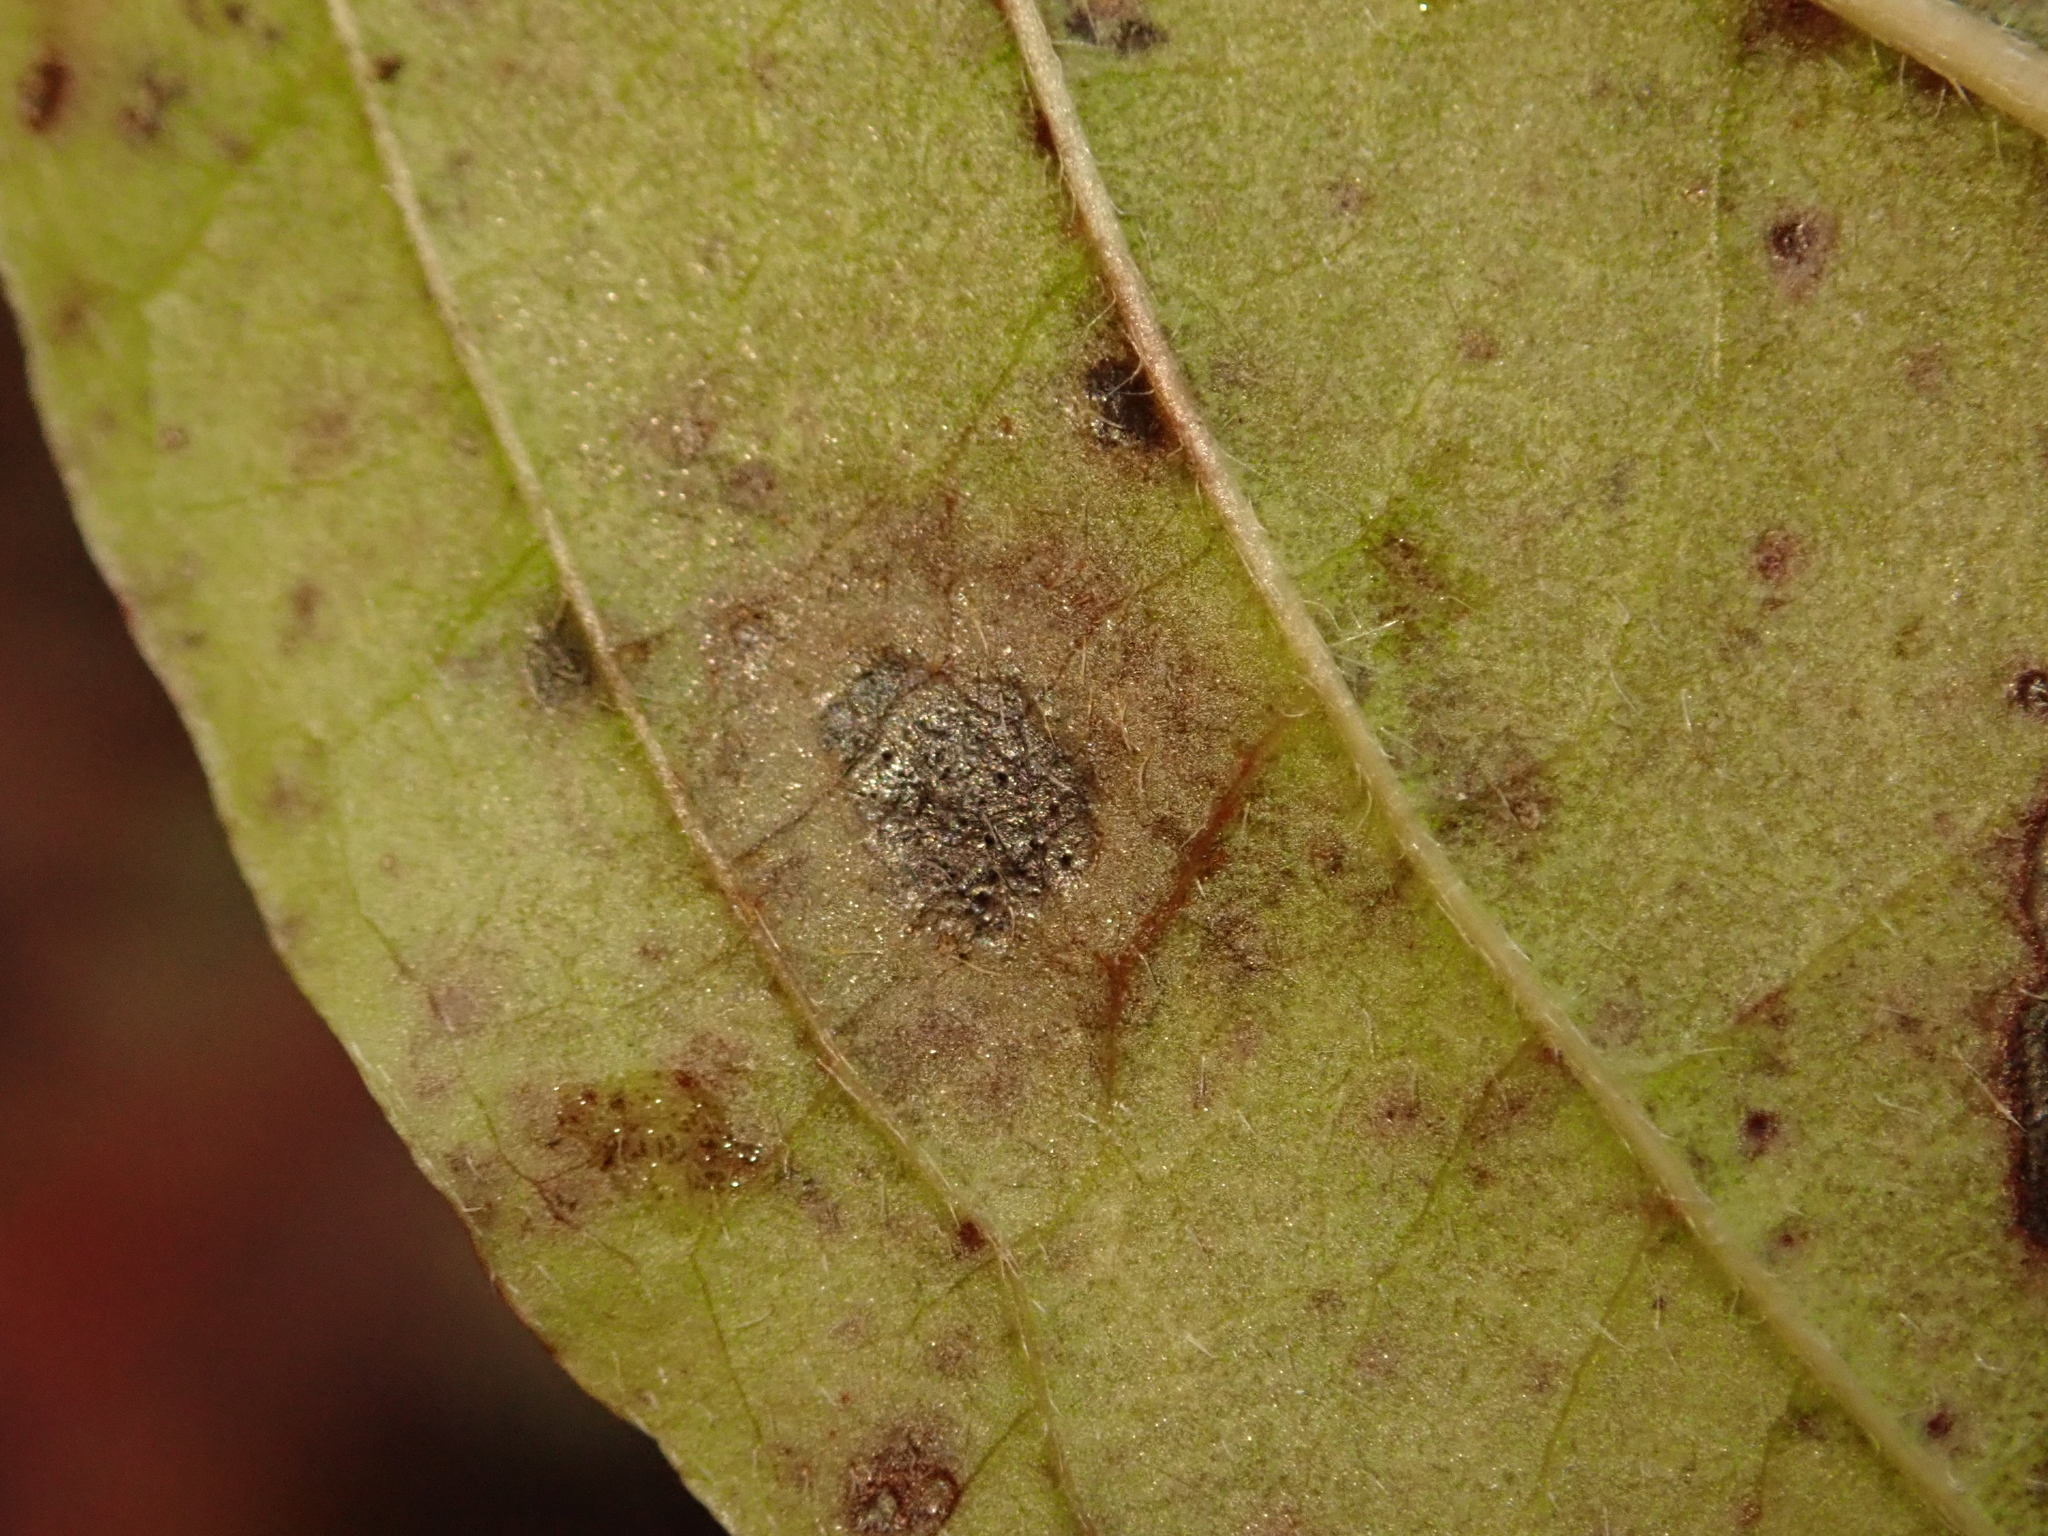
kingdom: Fungi
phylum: Ascomycota
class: Dothideomycetes
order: Mycosphaerellales
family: Mycosphaerellaceae
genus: Sphaerulina
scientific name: Sphaerulina cornicola
